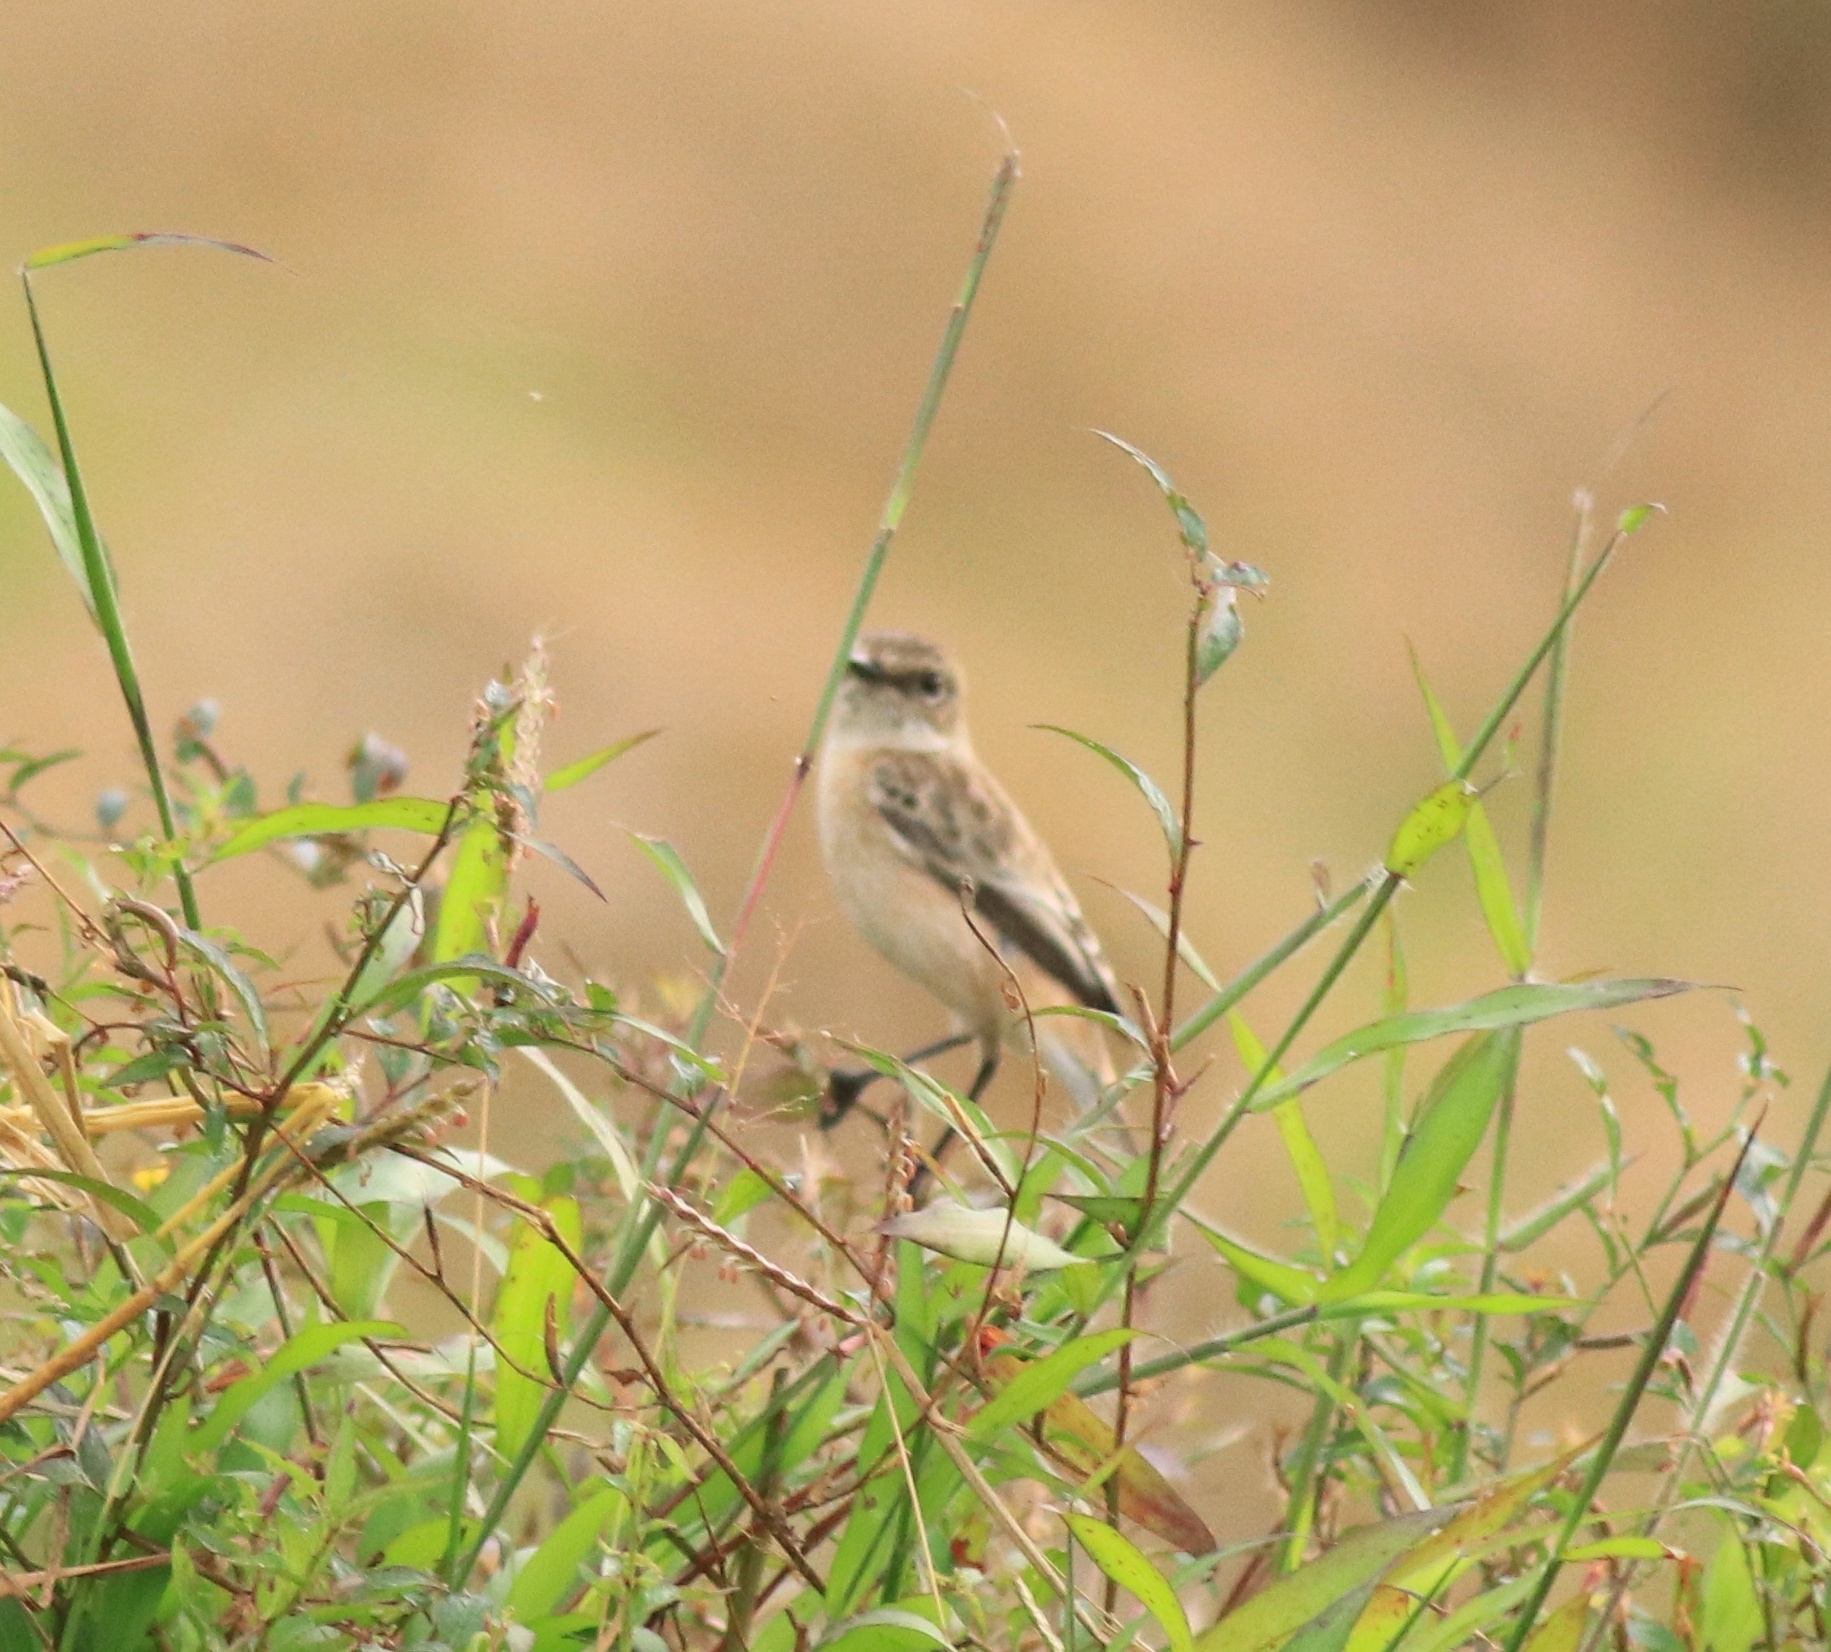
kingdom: Animalia
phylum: Chordata
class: Aves
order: Passeriformes
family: Muscicapidae
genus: Saxicola
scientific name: Saxicola maurus
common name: Siberian stonechat
